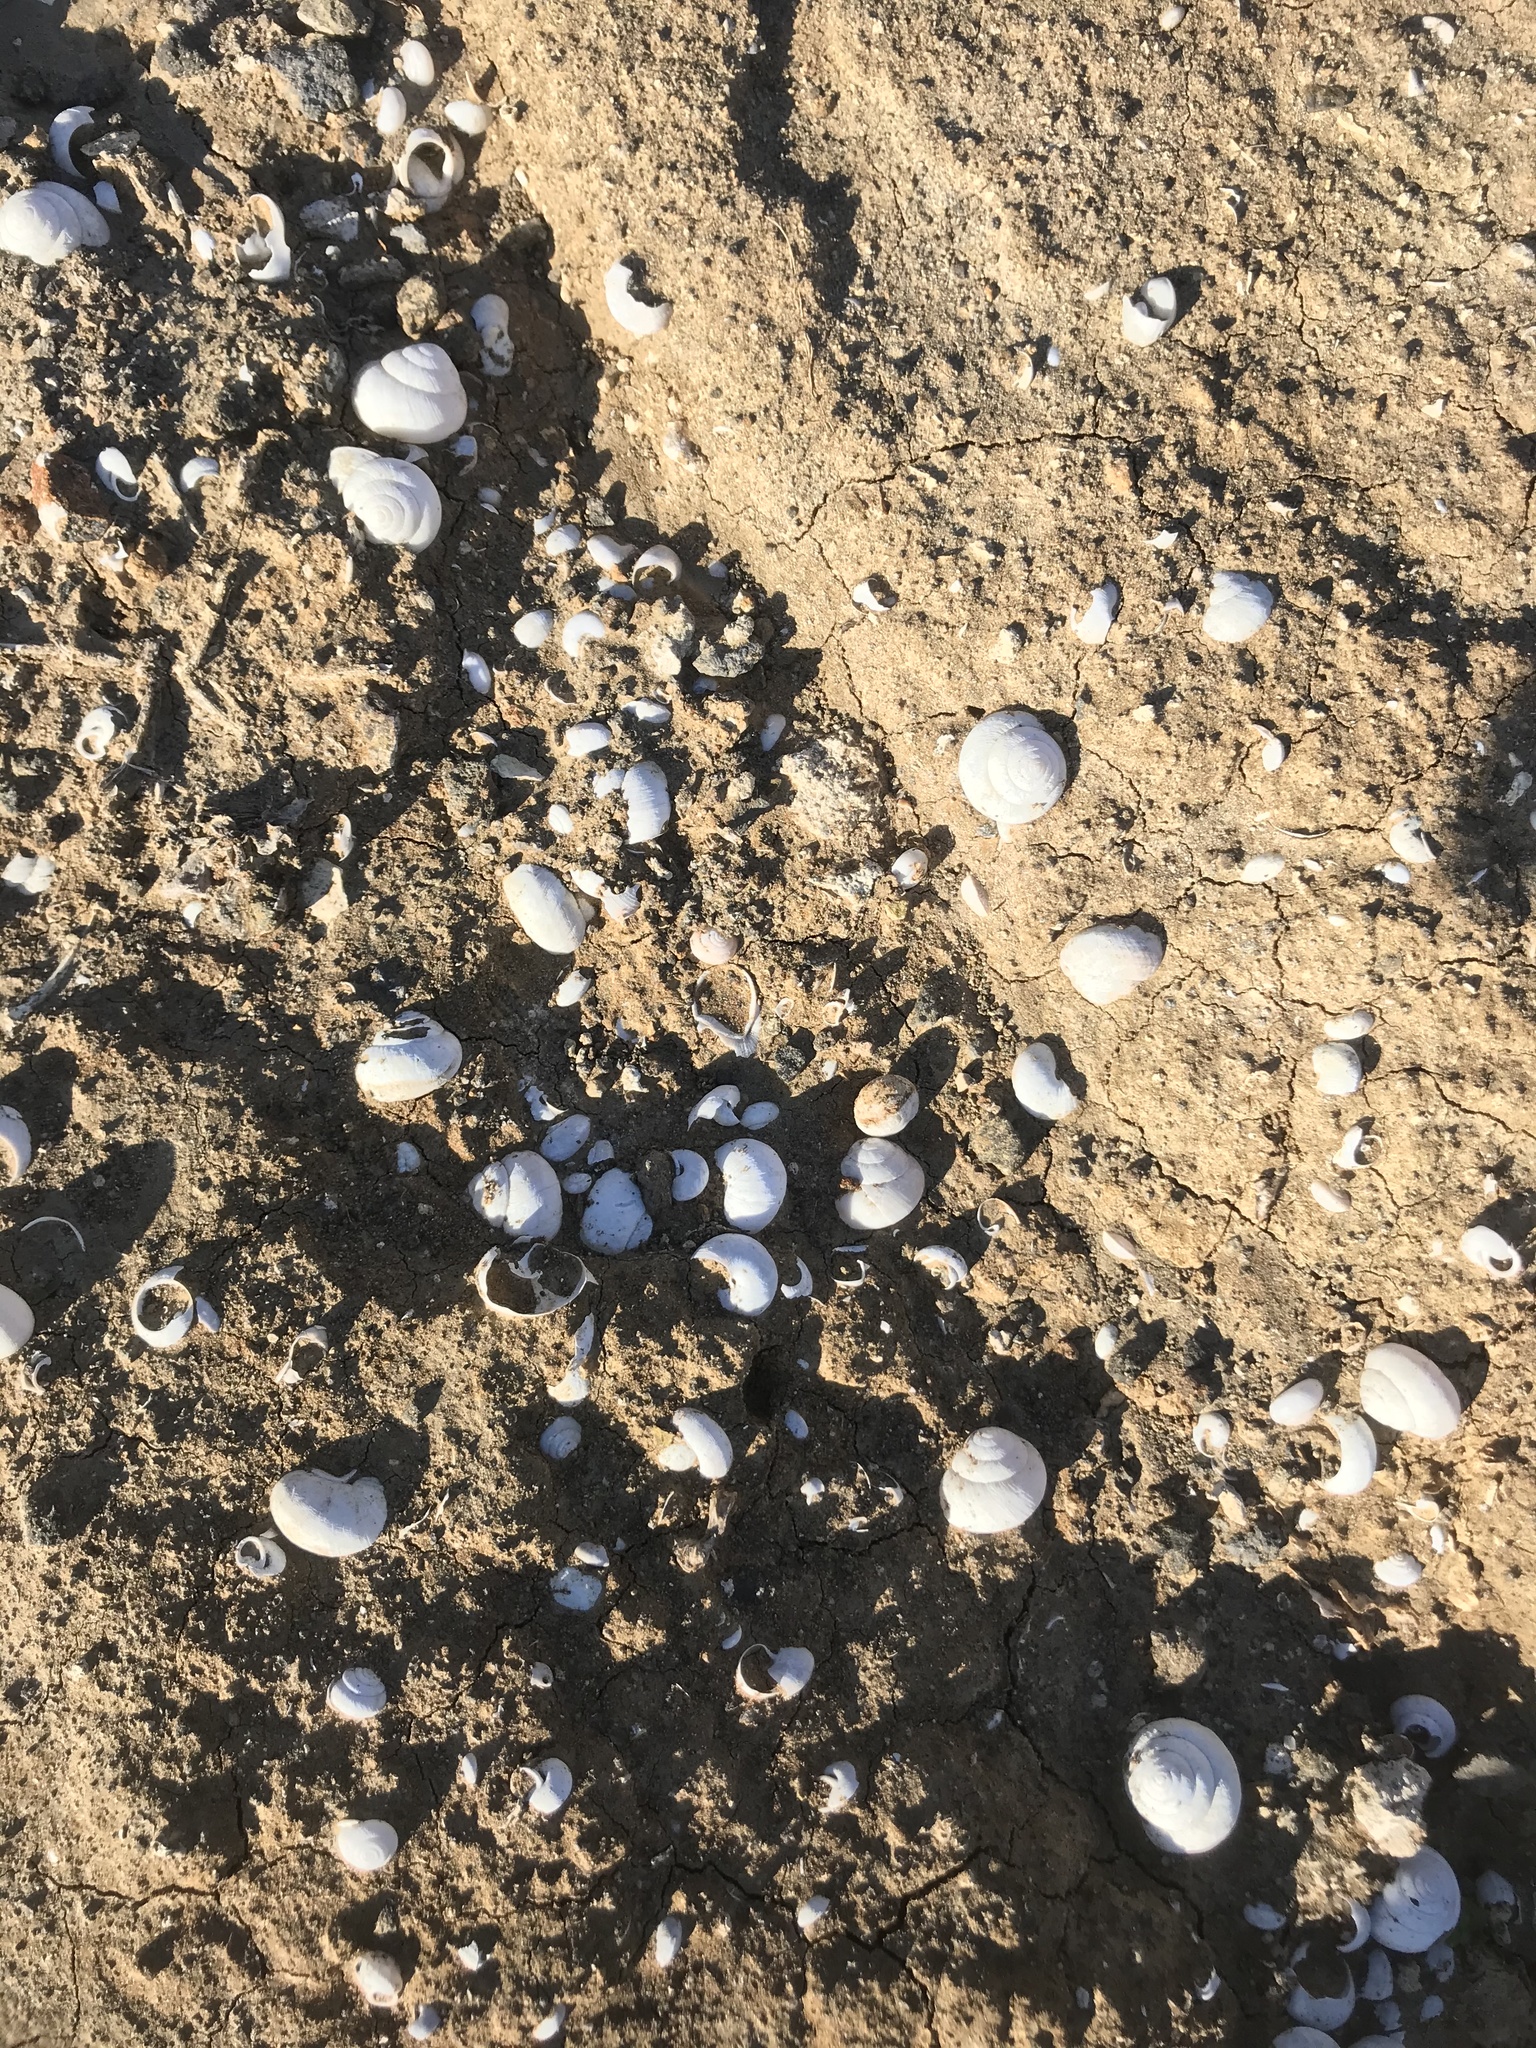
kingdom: Animalia
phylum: Mollusca
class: Gastropoda
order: Stylommatophora
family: Xanthonychidae
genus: Xerarionta
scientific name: Xerarionta tryoni
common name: Bicolor cactus snail
